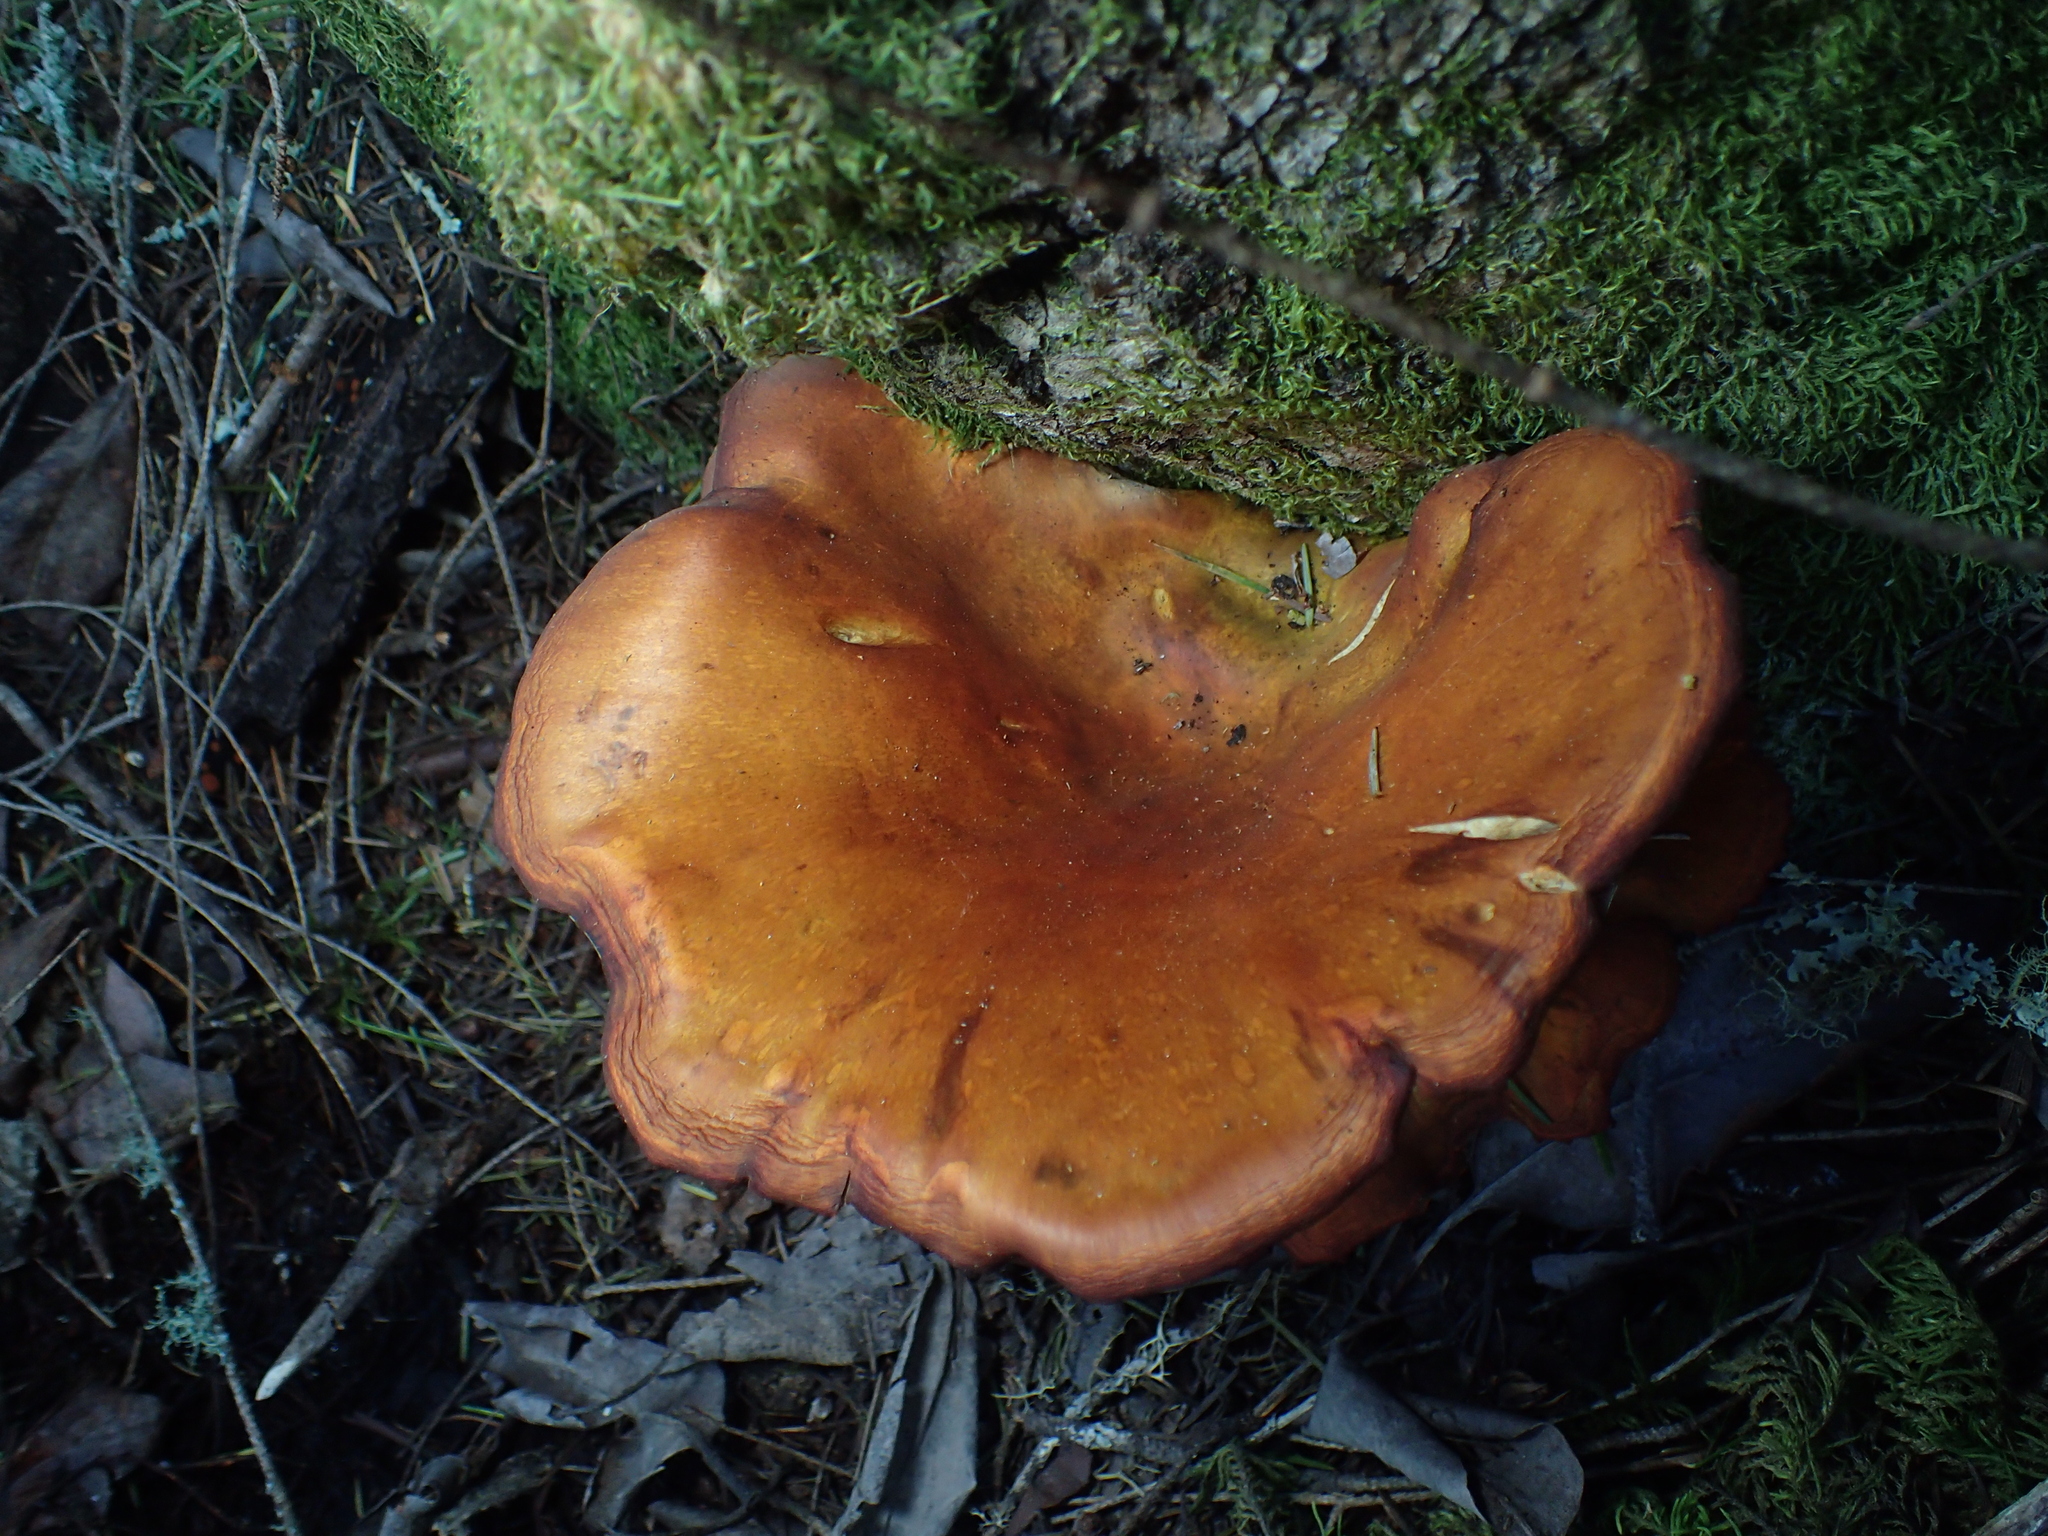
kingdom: Fungi
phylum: Basidiomycota
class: Agaricomycetes
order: Agaricales
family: Omphalotaceae
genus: Omphalotus
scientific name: Omphalotus olivascens
